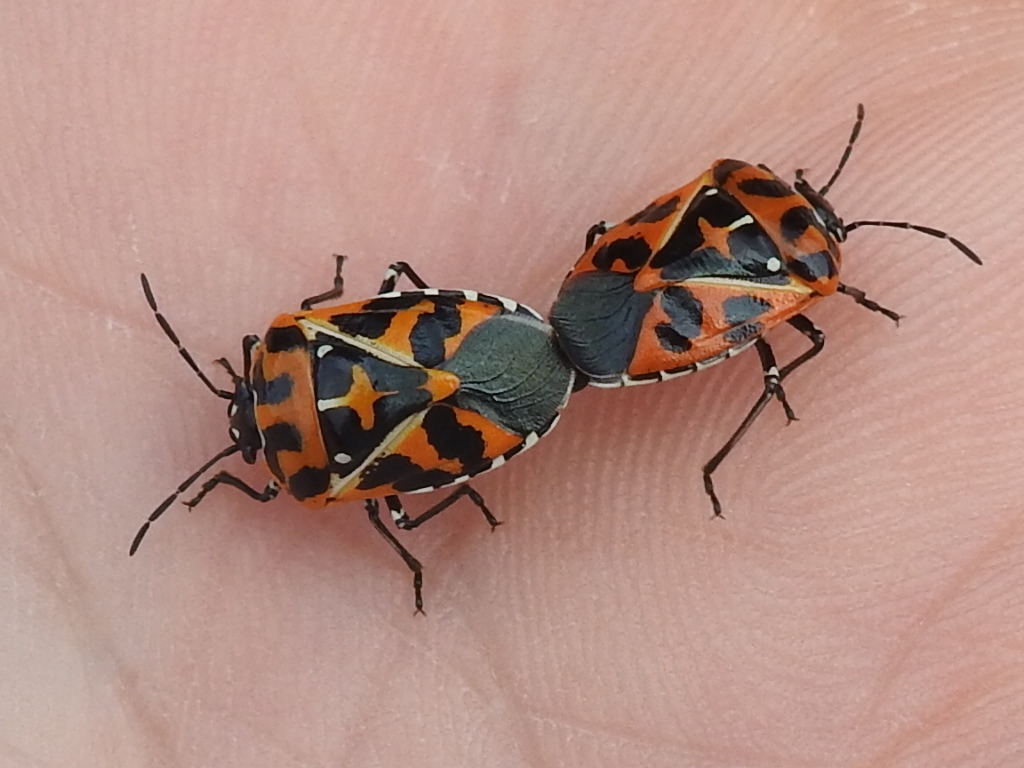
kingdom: Animalia
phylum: Arthropoda
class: Insecta
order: Hemiptera
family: Pentatomidae
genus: Murgantia
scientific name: Murgantia histrionica
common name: Harlequin bug
